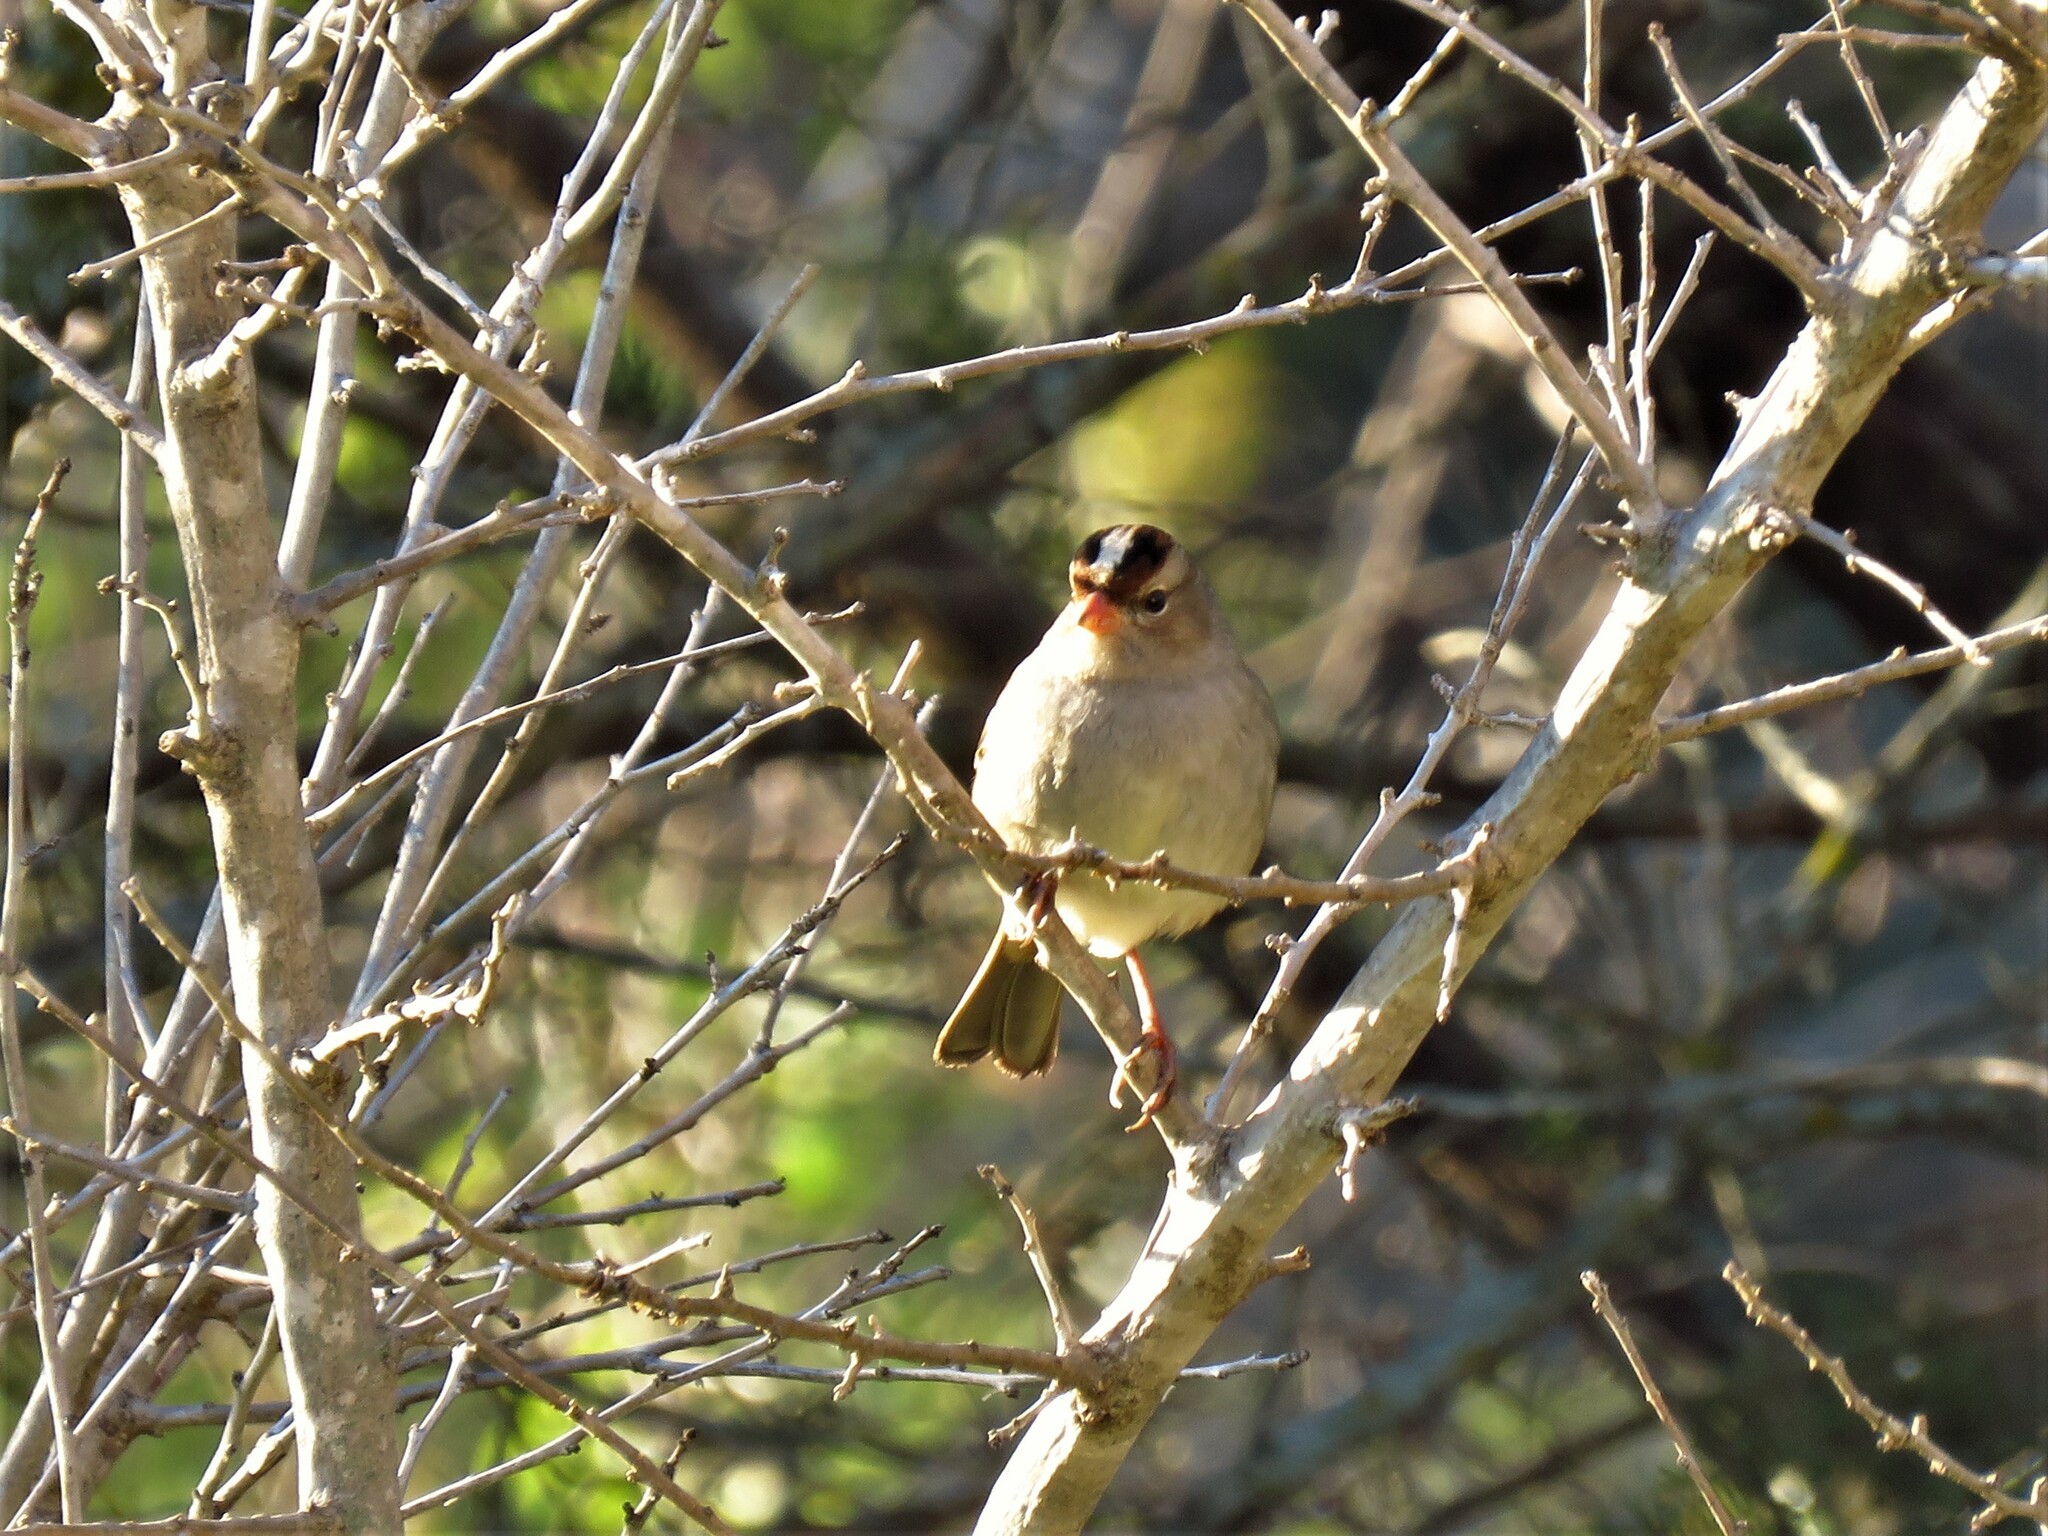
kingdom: Animalia
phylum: Chordata
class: Aves
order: Passeriformes
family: Passerellidae
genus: Zonotrichia
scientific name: Zonotrichia leucophrys
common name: White-crowned sparrow
